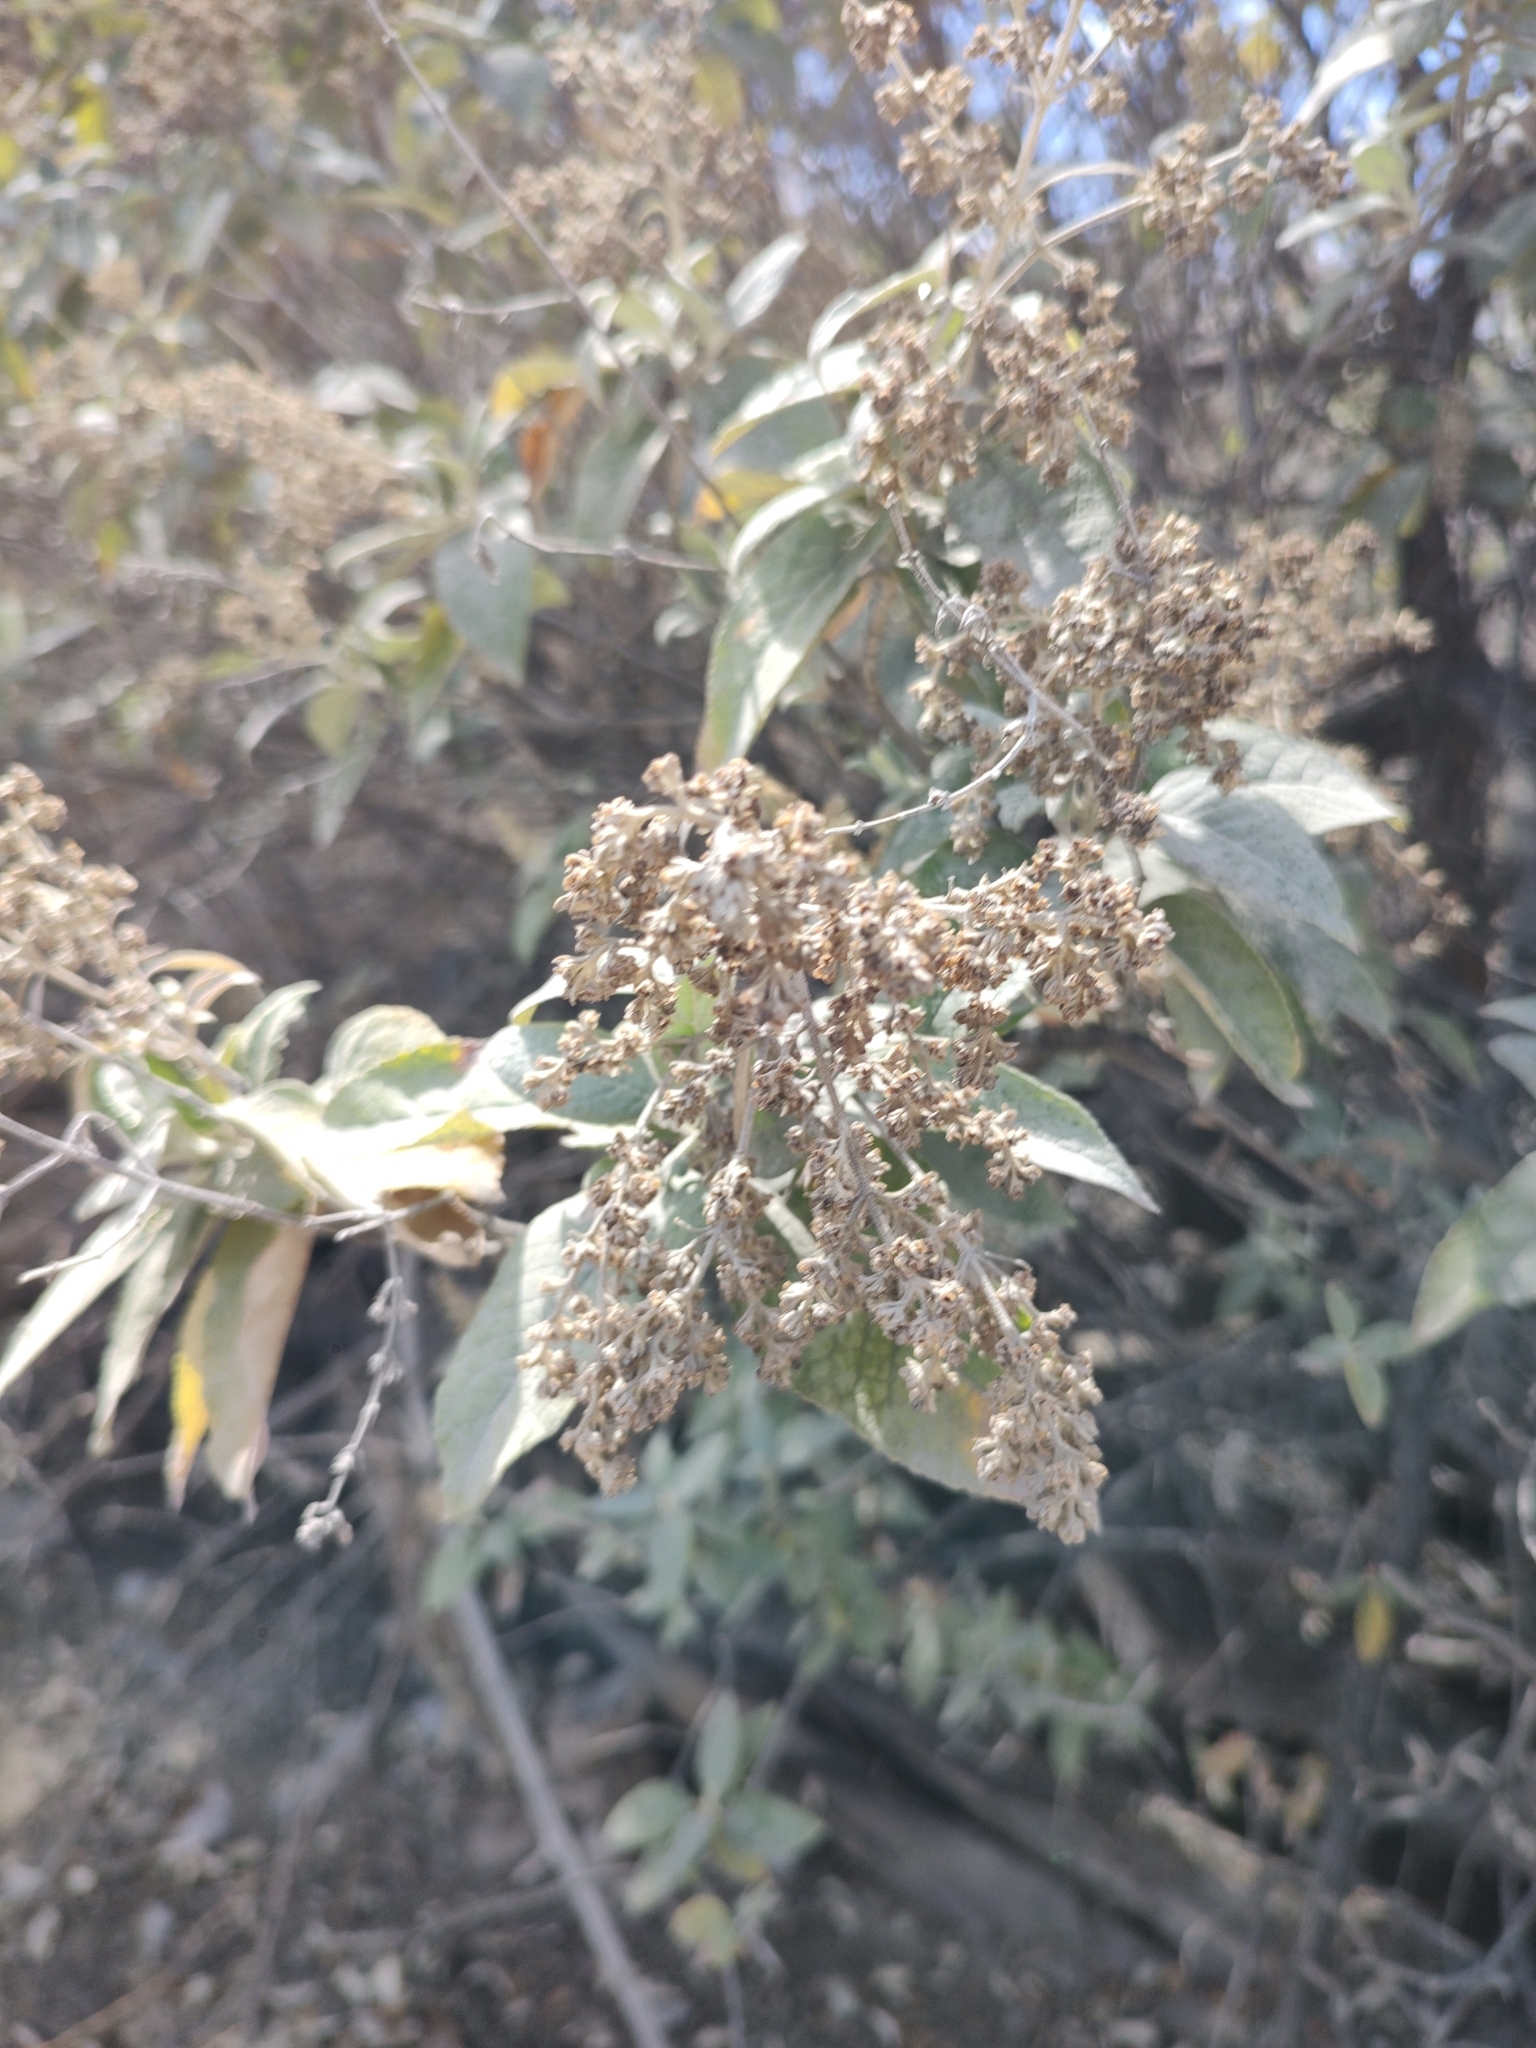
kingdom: Plantae
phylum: Tracheophyta
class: Magnoliopsida
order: Lamiales
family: Scrophulariaceae
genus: Buddleja
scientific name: Buddleja cordata
